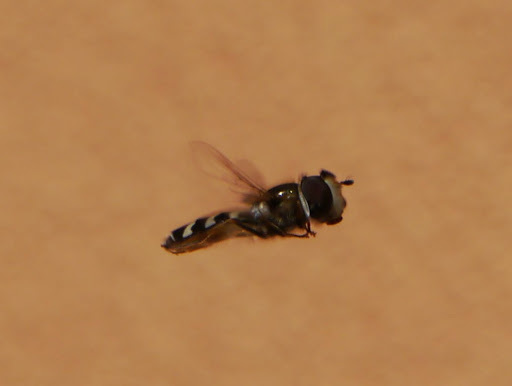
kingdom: Animalia
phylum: Arthropoda
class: Insecta
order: Diptera
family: Syrphidae
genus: Scaeva
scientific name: Scaeva pyrastri
